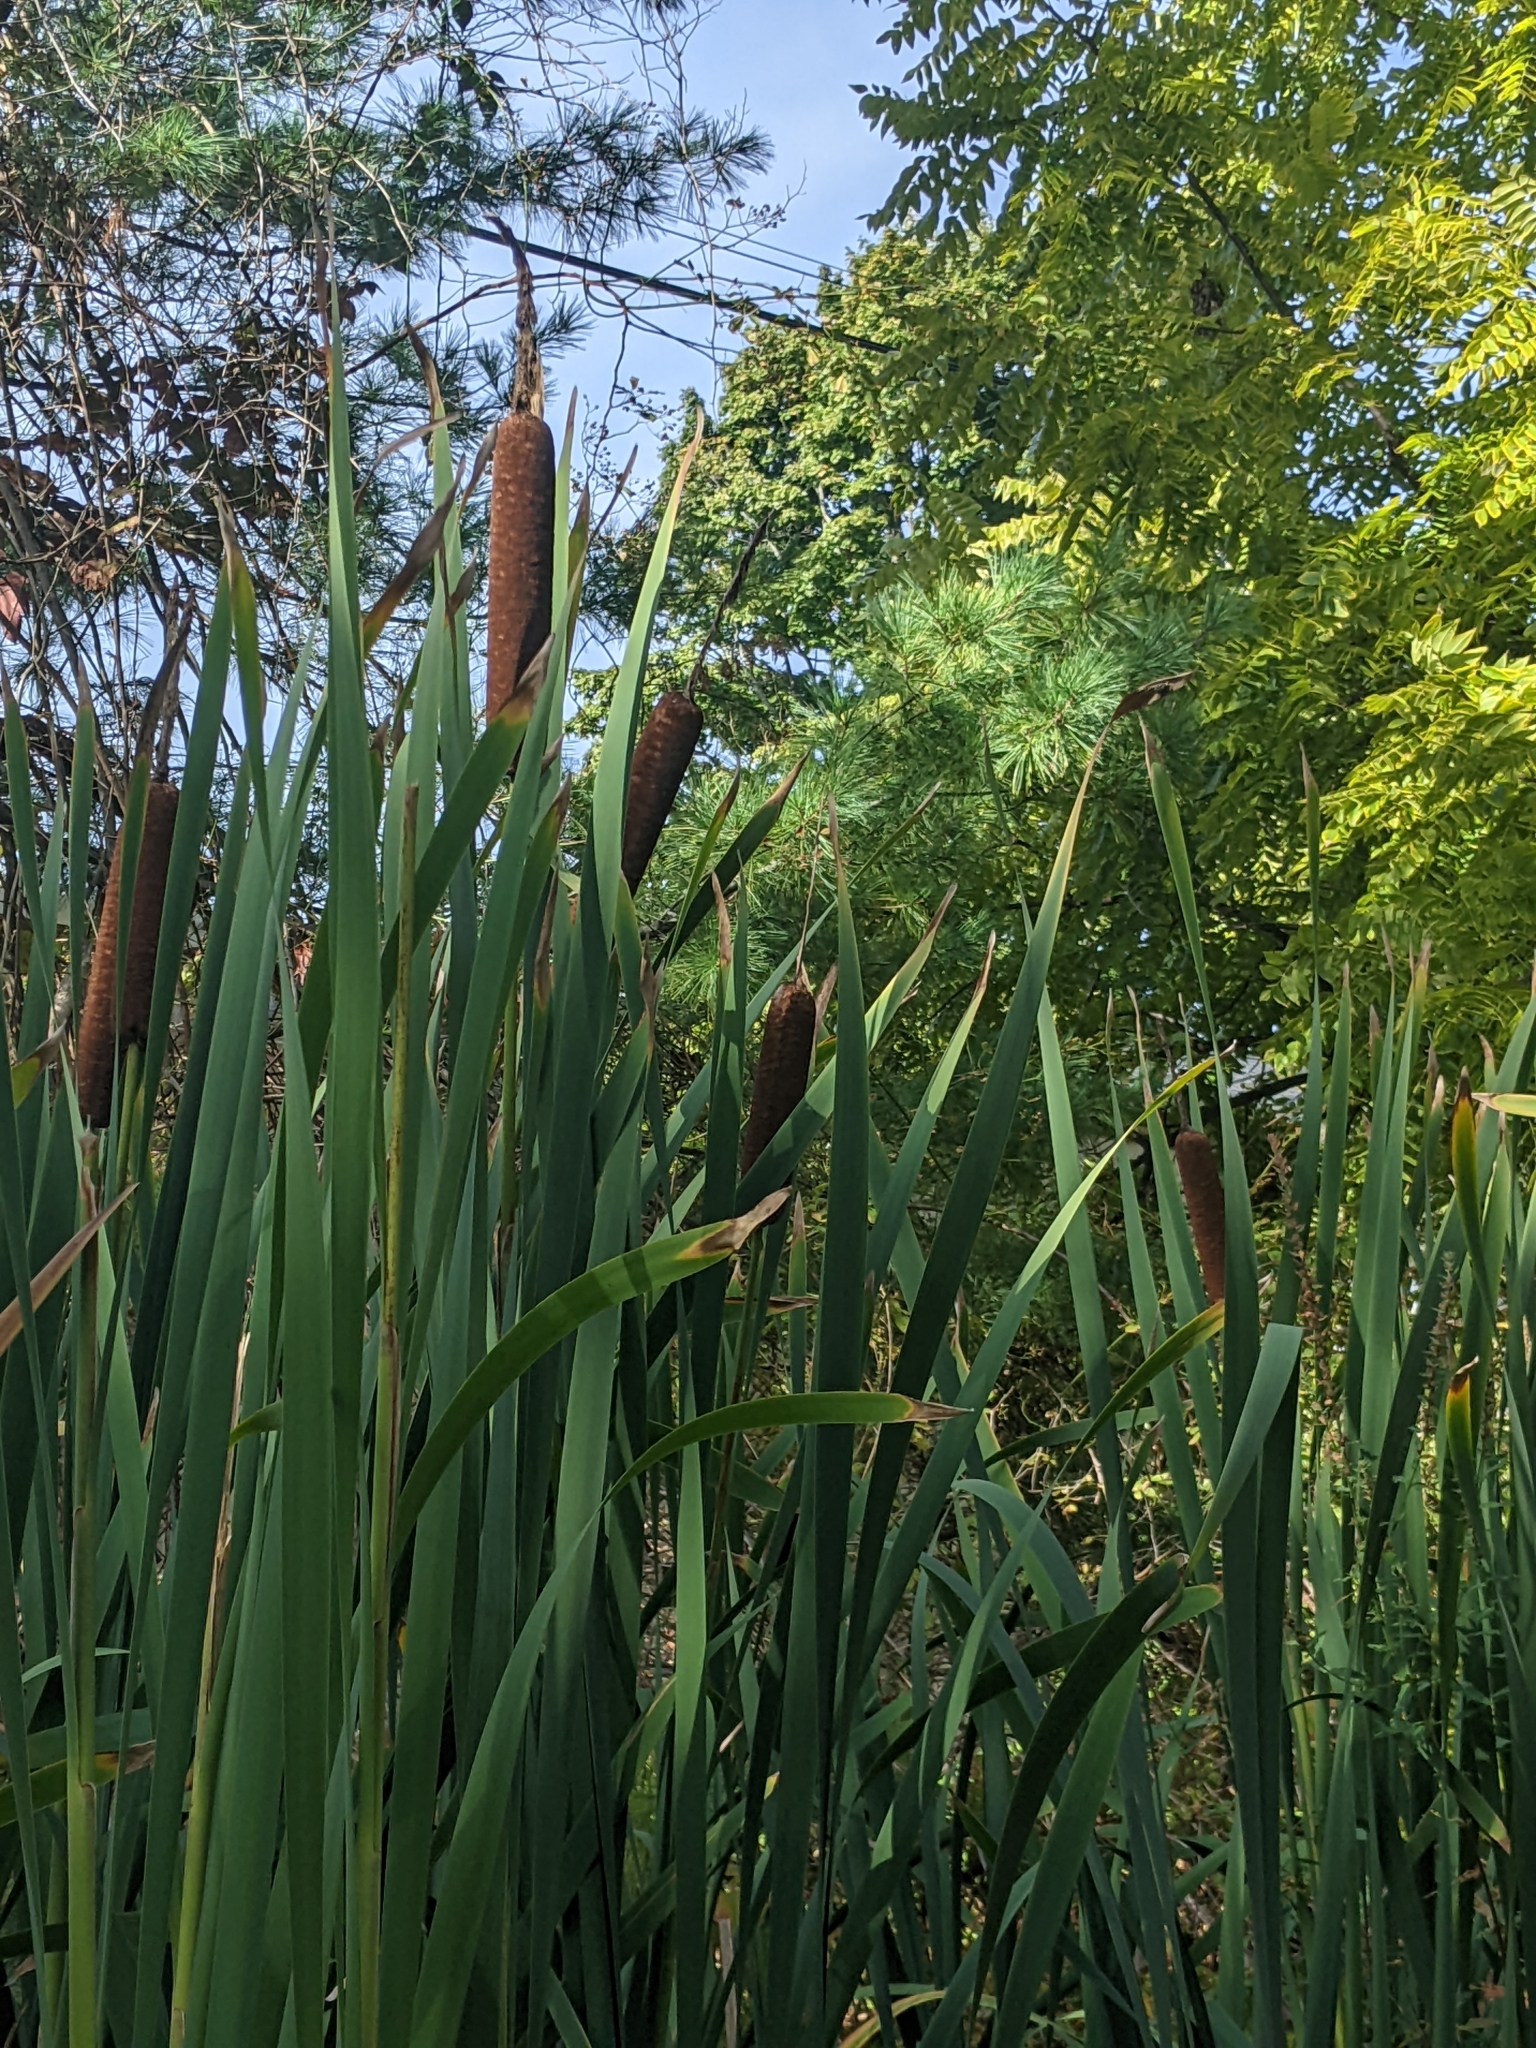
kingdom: Plantae
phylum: Tracheophyta
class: Liliopsida
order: Poales
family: Typhaceae
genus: Typha
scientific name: Typha latifolia
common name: Broadleaf cattail
